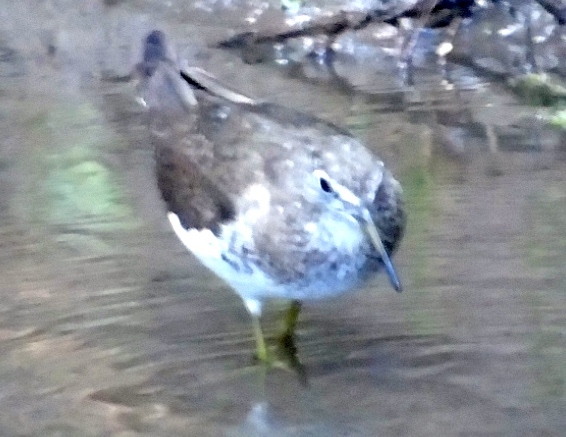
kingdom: Animalia
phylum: Chordata
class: Aves
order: Charadriiformes
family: Scolopacidae
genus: Tringa
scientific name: Tringa solitaria
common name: Solitary sandpiper
